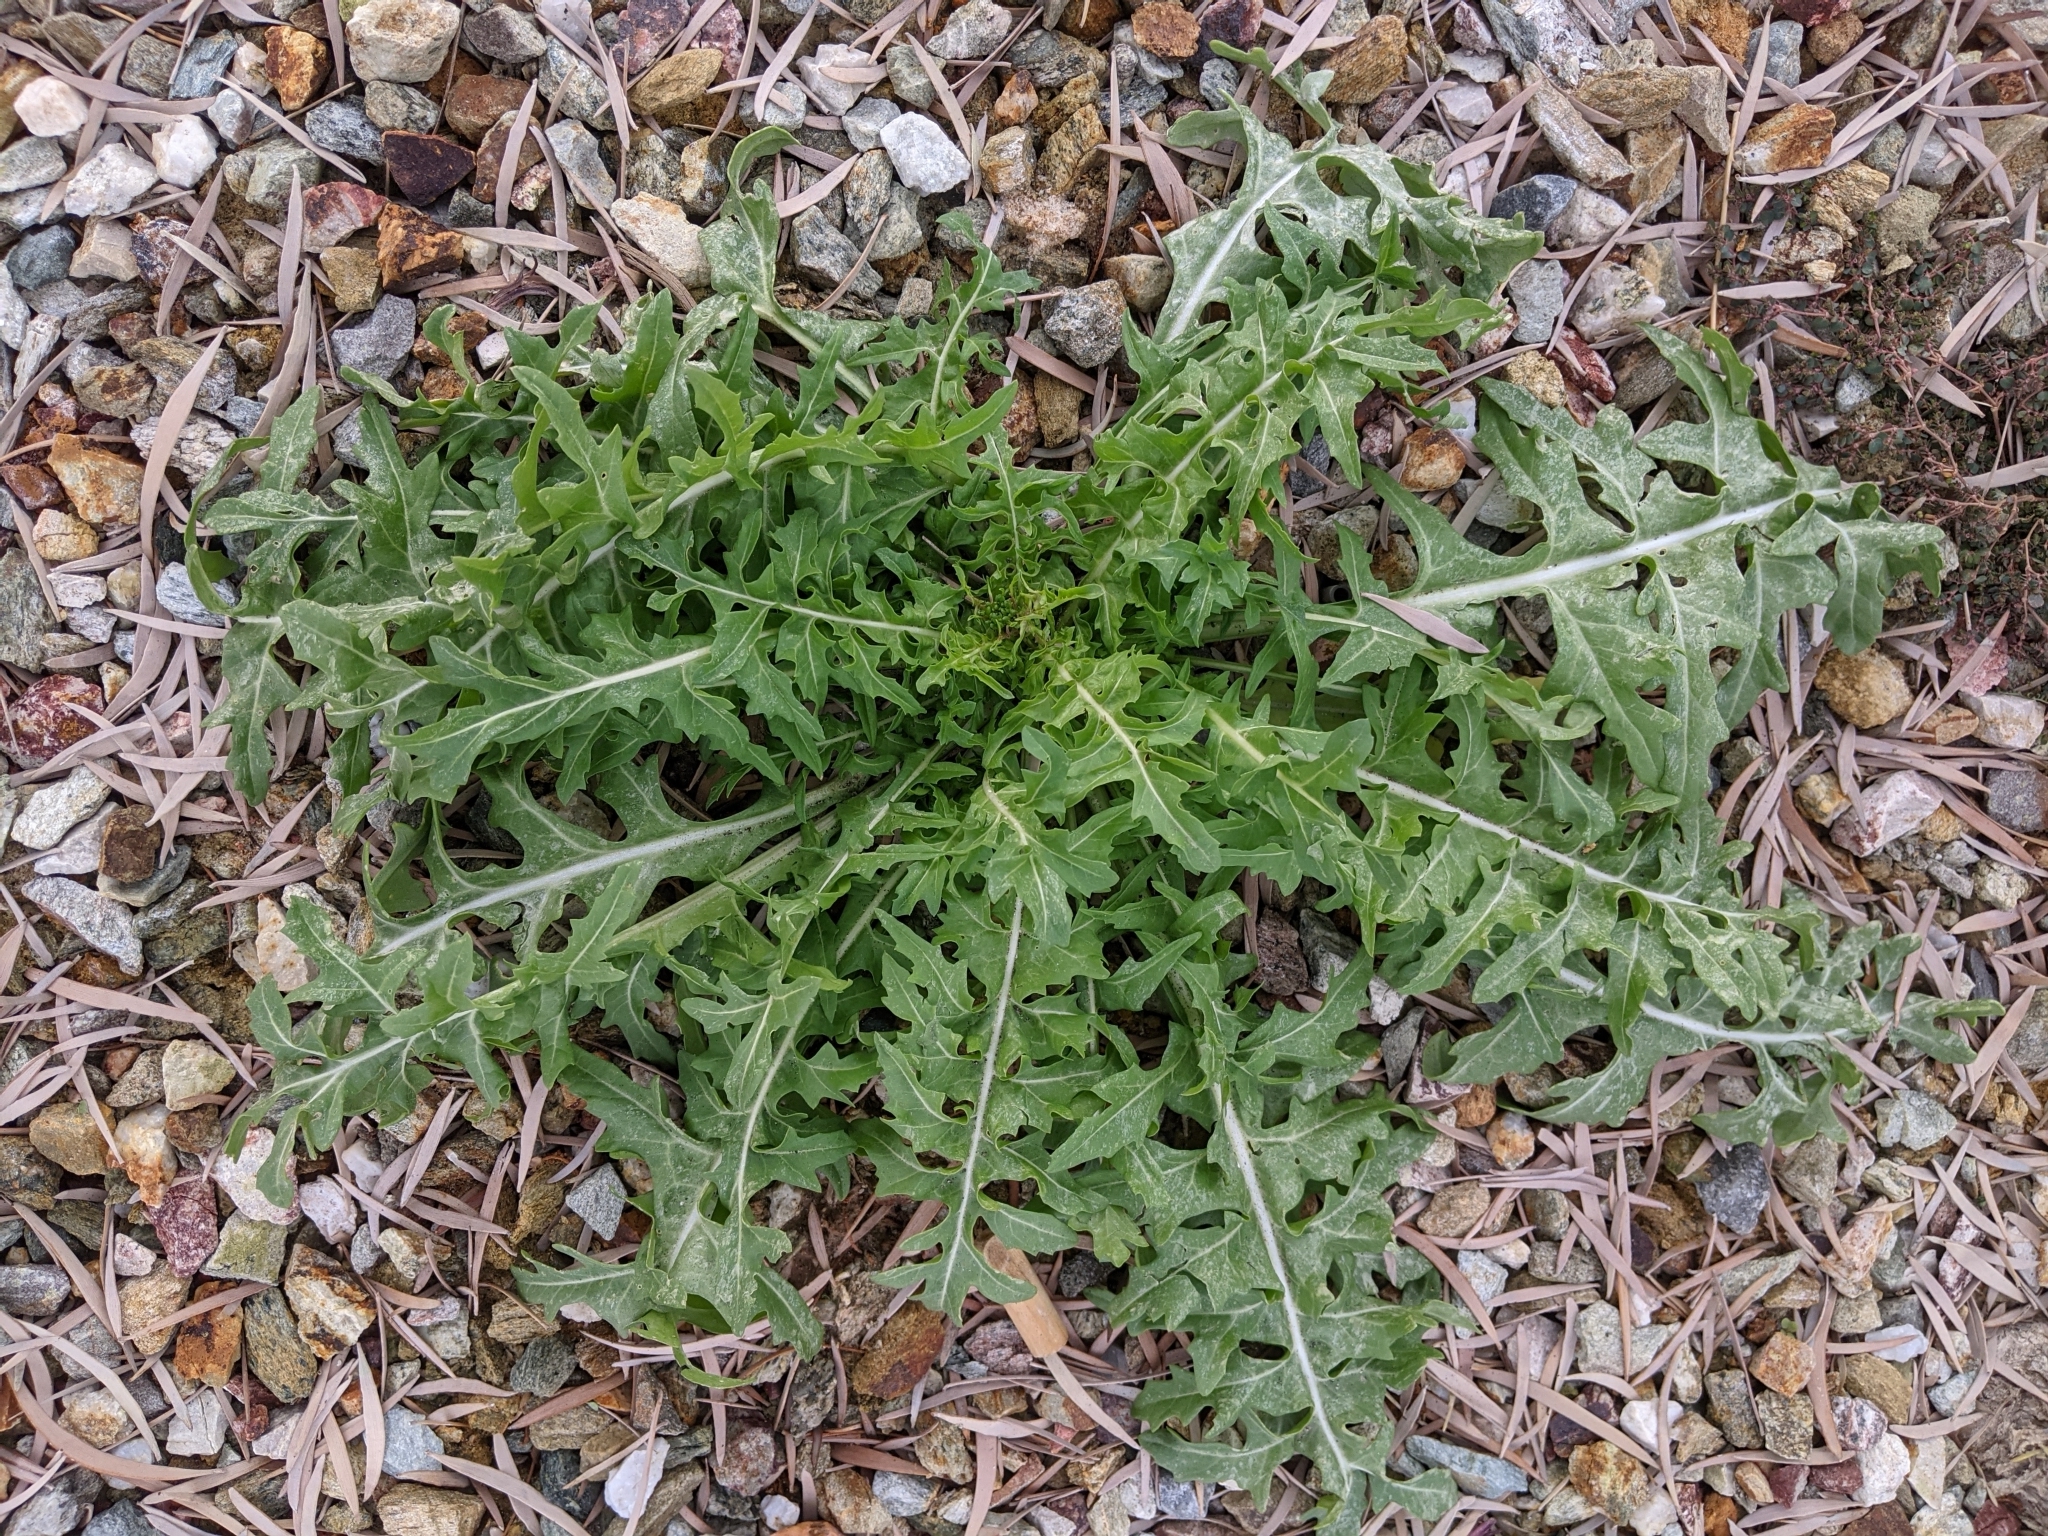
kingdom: Plantae
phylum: Tracheophyta
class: Magnoliopsida
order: Brassicales
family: Brassicaceae
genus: Sisymbrium
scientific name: Sisymbrium irio
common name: London rocket
